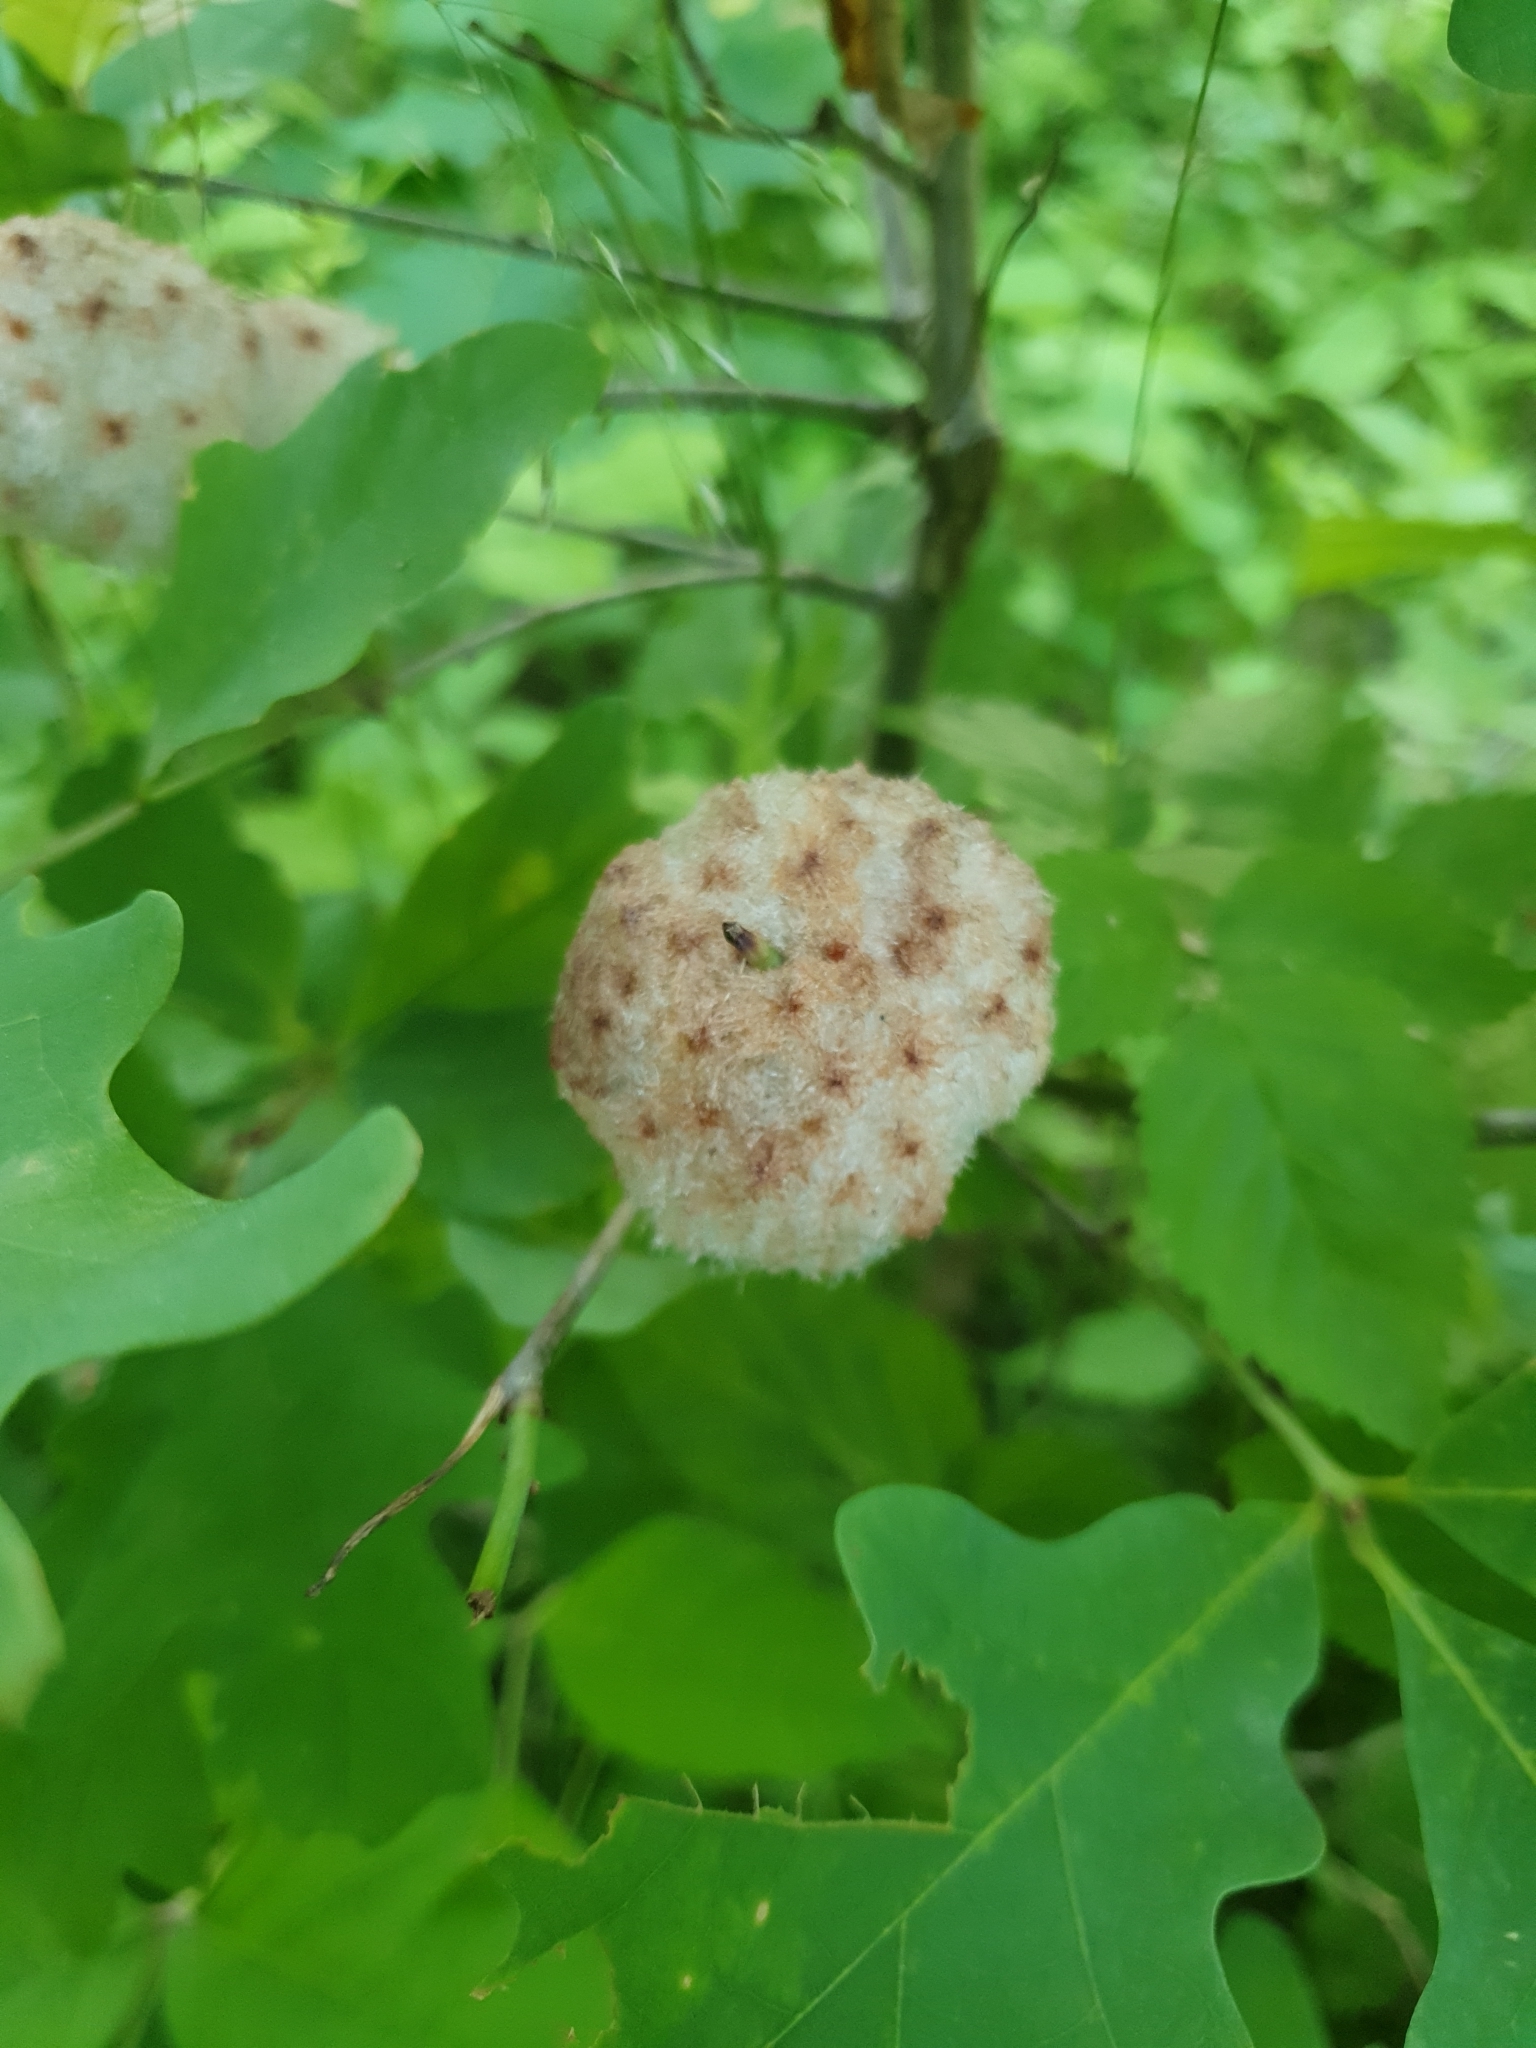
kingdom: Animalia
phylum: Arthropoda
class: Insecta
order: Hymenoptera
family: Cynipidae
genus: Callirhytis
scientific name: Callirhytis
